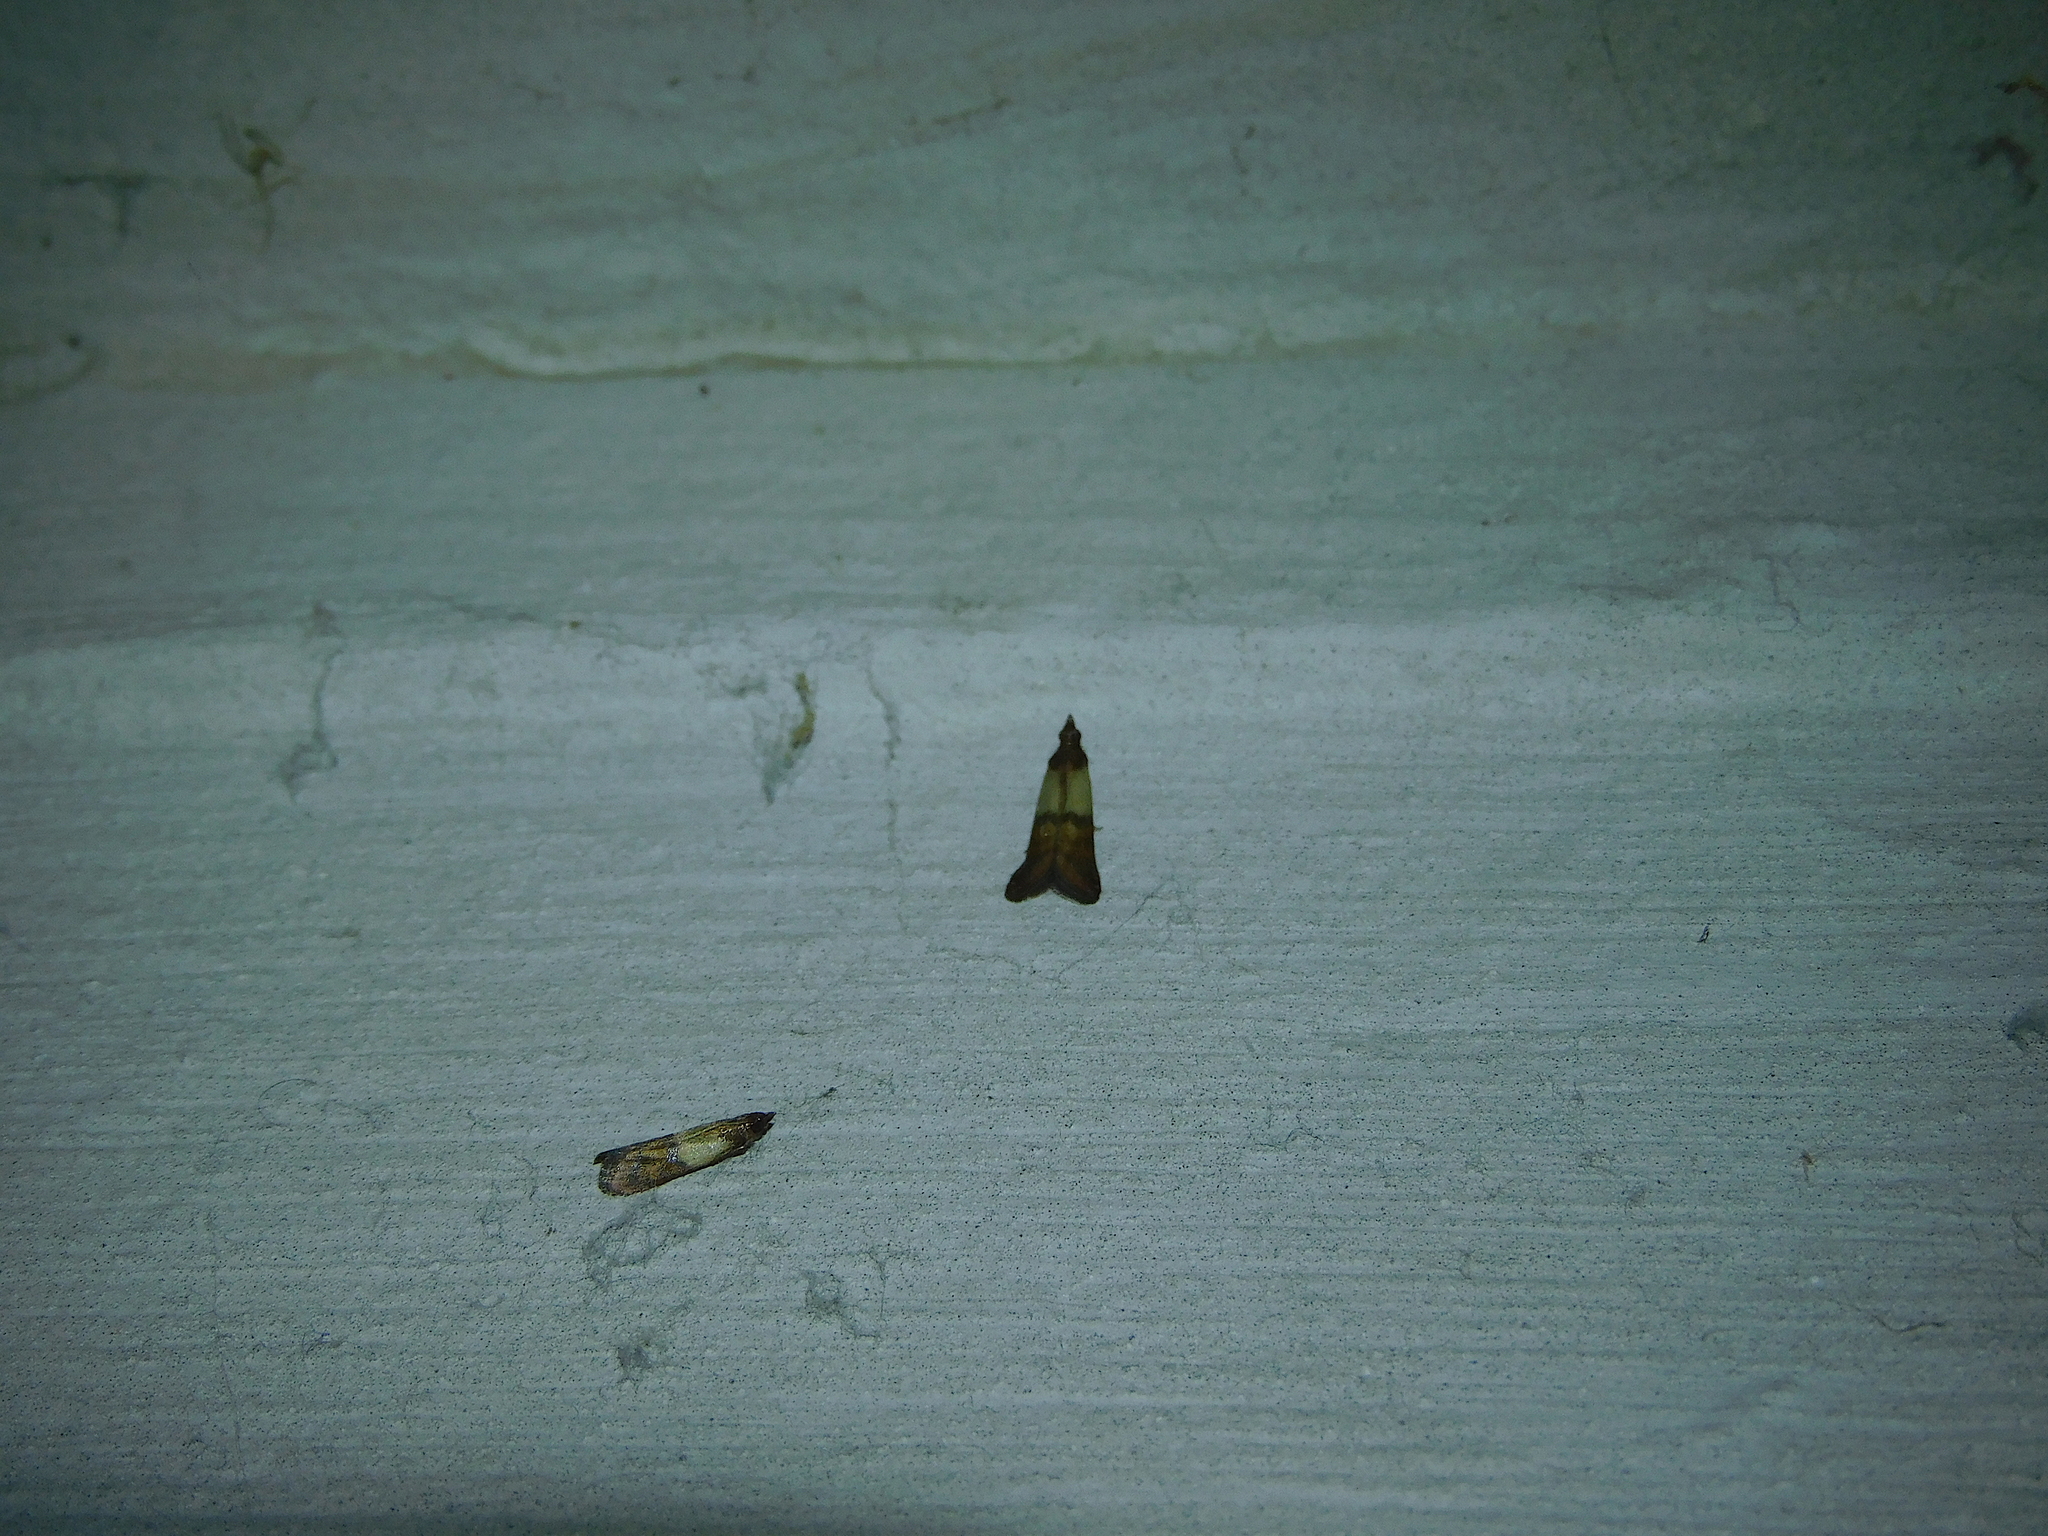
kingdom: Animalia
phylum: Arthropoda
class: Insecta
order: Lepidoptera
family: Pyralidae
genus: Plodia
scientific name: Plodia interpunctella
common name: Indian meal moth
